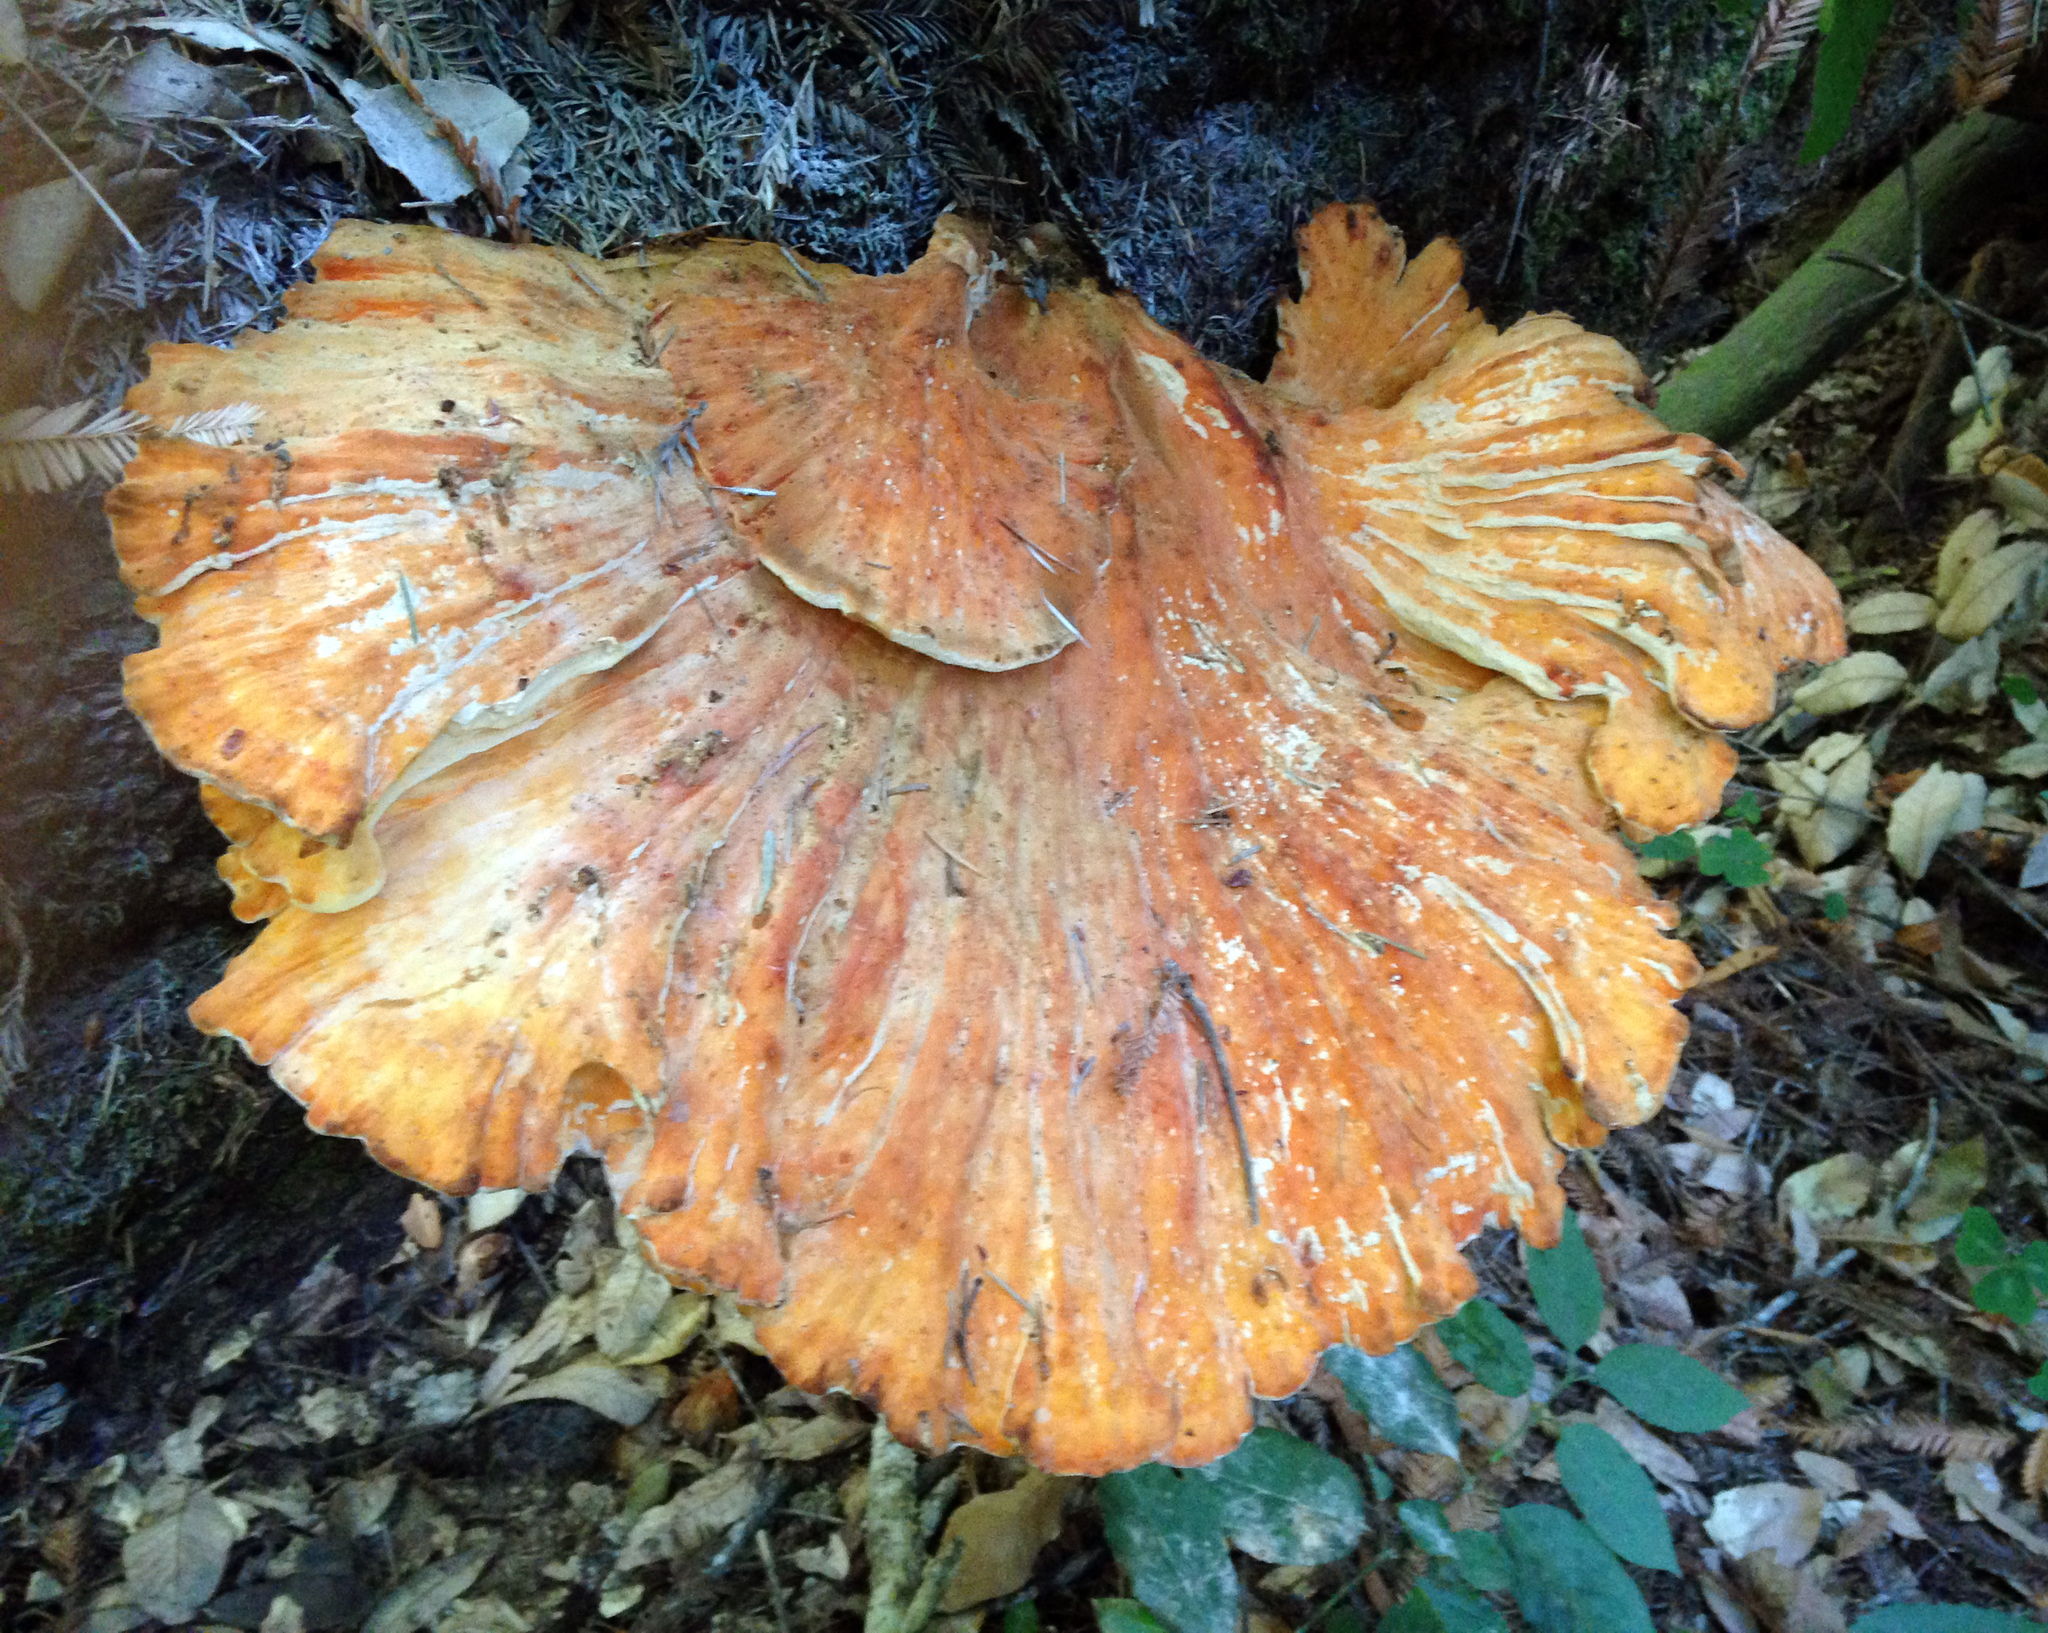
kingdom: Fungi
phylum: Basidiomycota
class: Agaricomycetes
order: Polyporales
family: Laetiporaceae
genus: Laetiporus
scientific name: Laetiporus gilbertsonii
